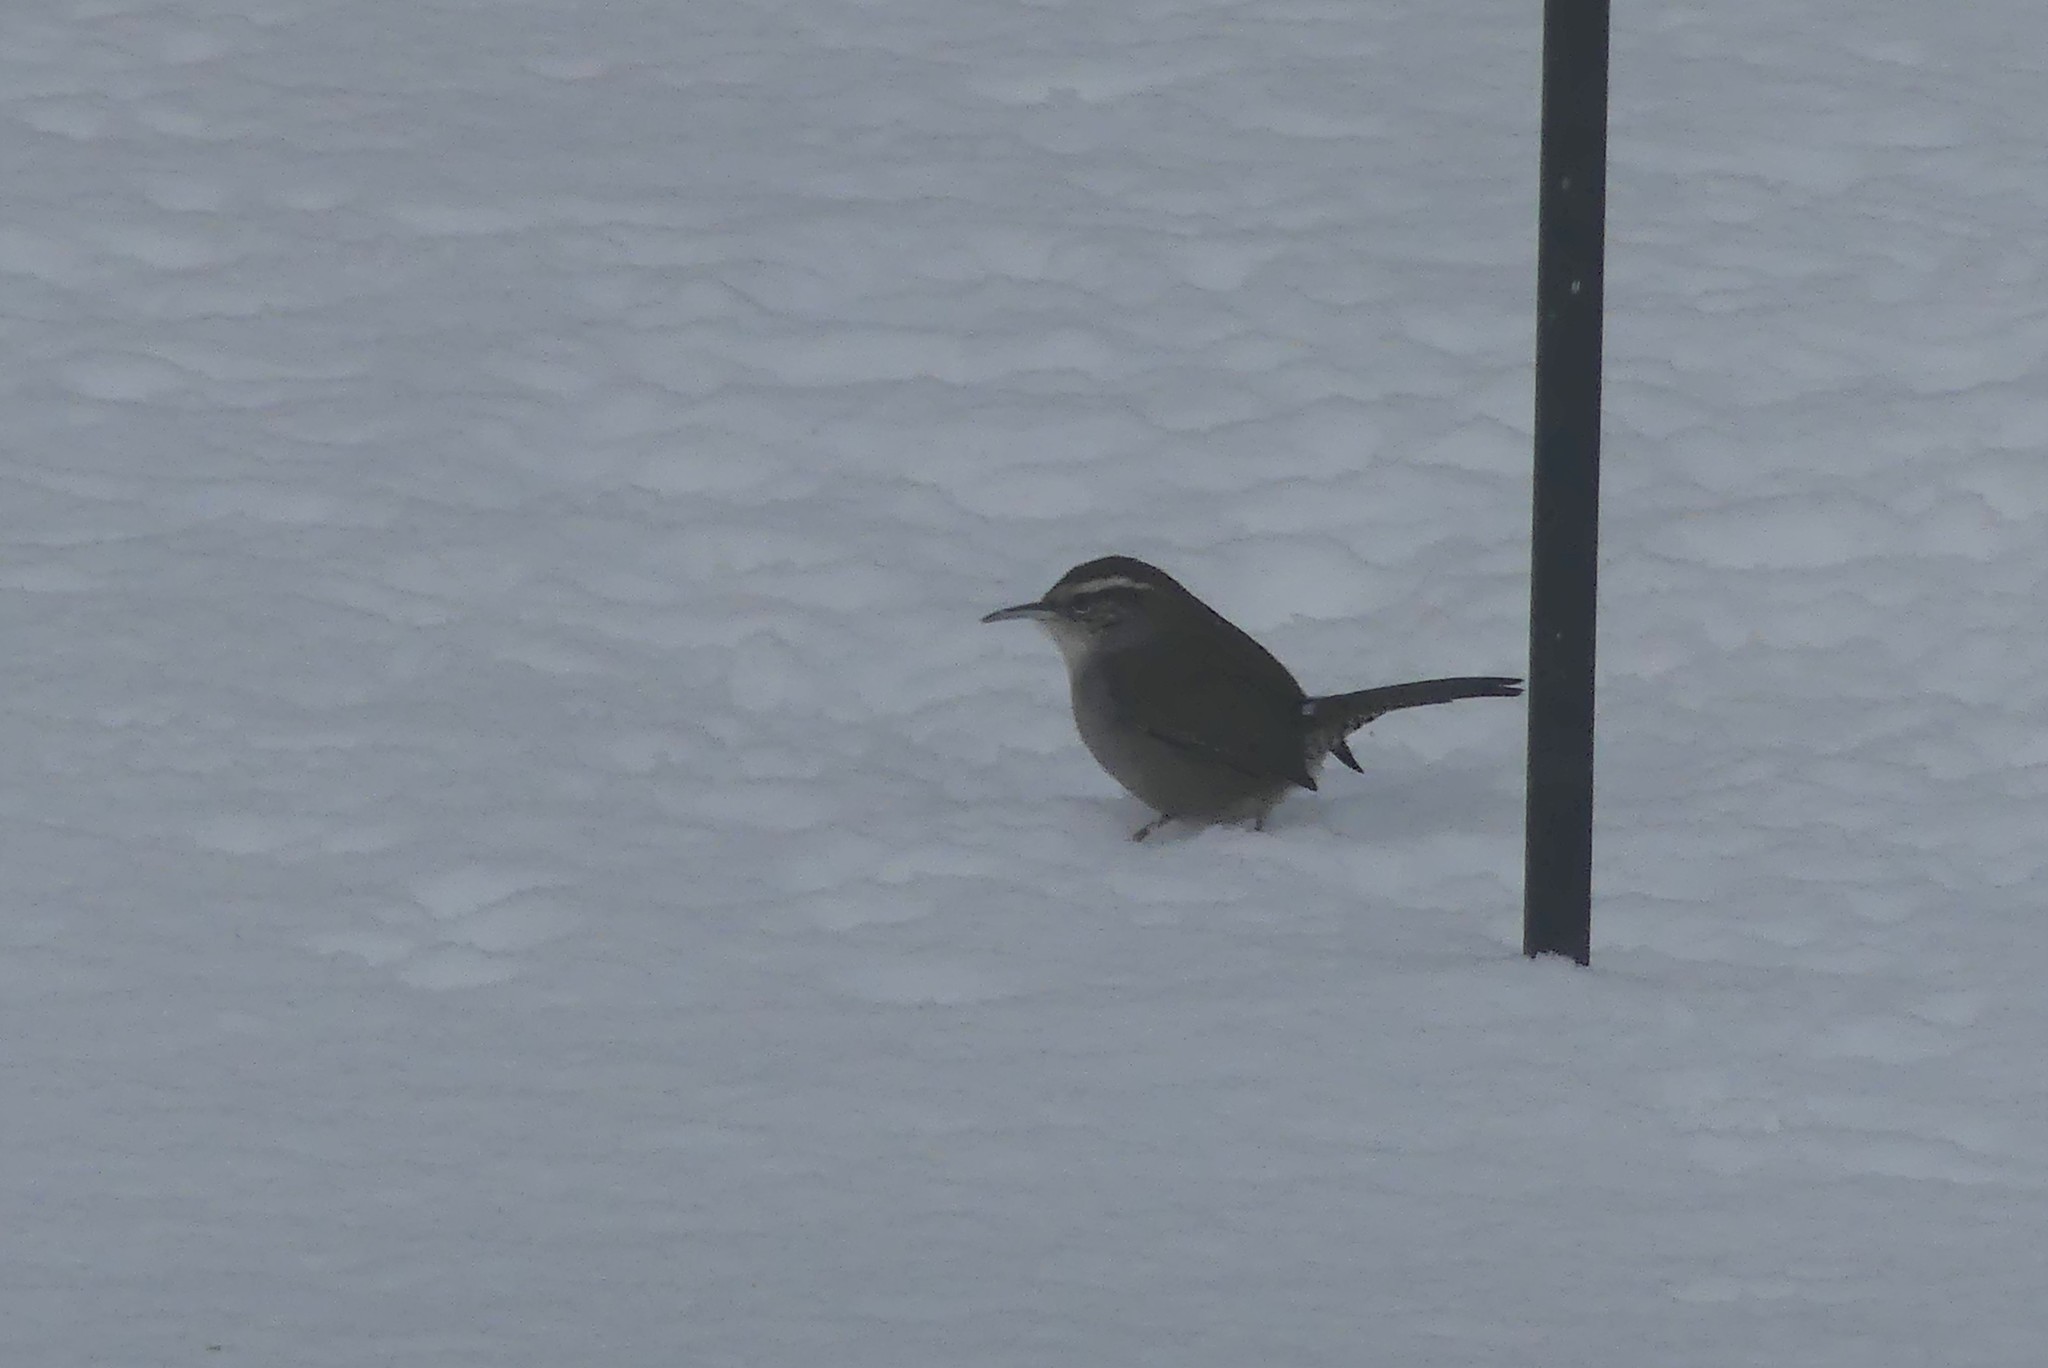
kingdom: Animalia
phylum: Chordata
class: Aves
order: Passeriformes
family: Troglodytidae
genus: Thryomanes
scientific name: Thryomanes bewickii
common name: Bewick's wren
